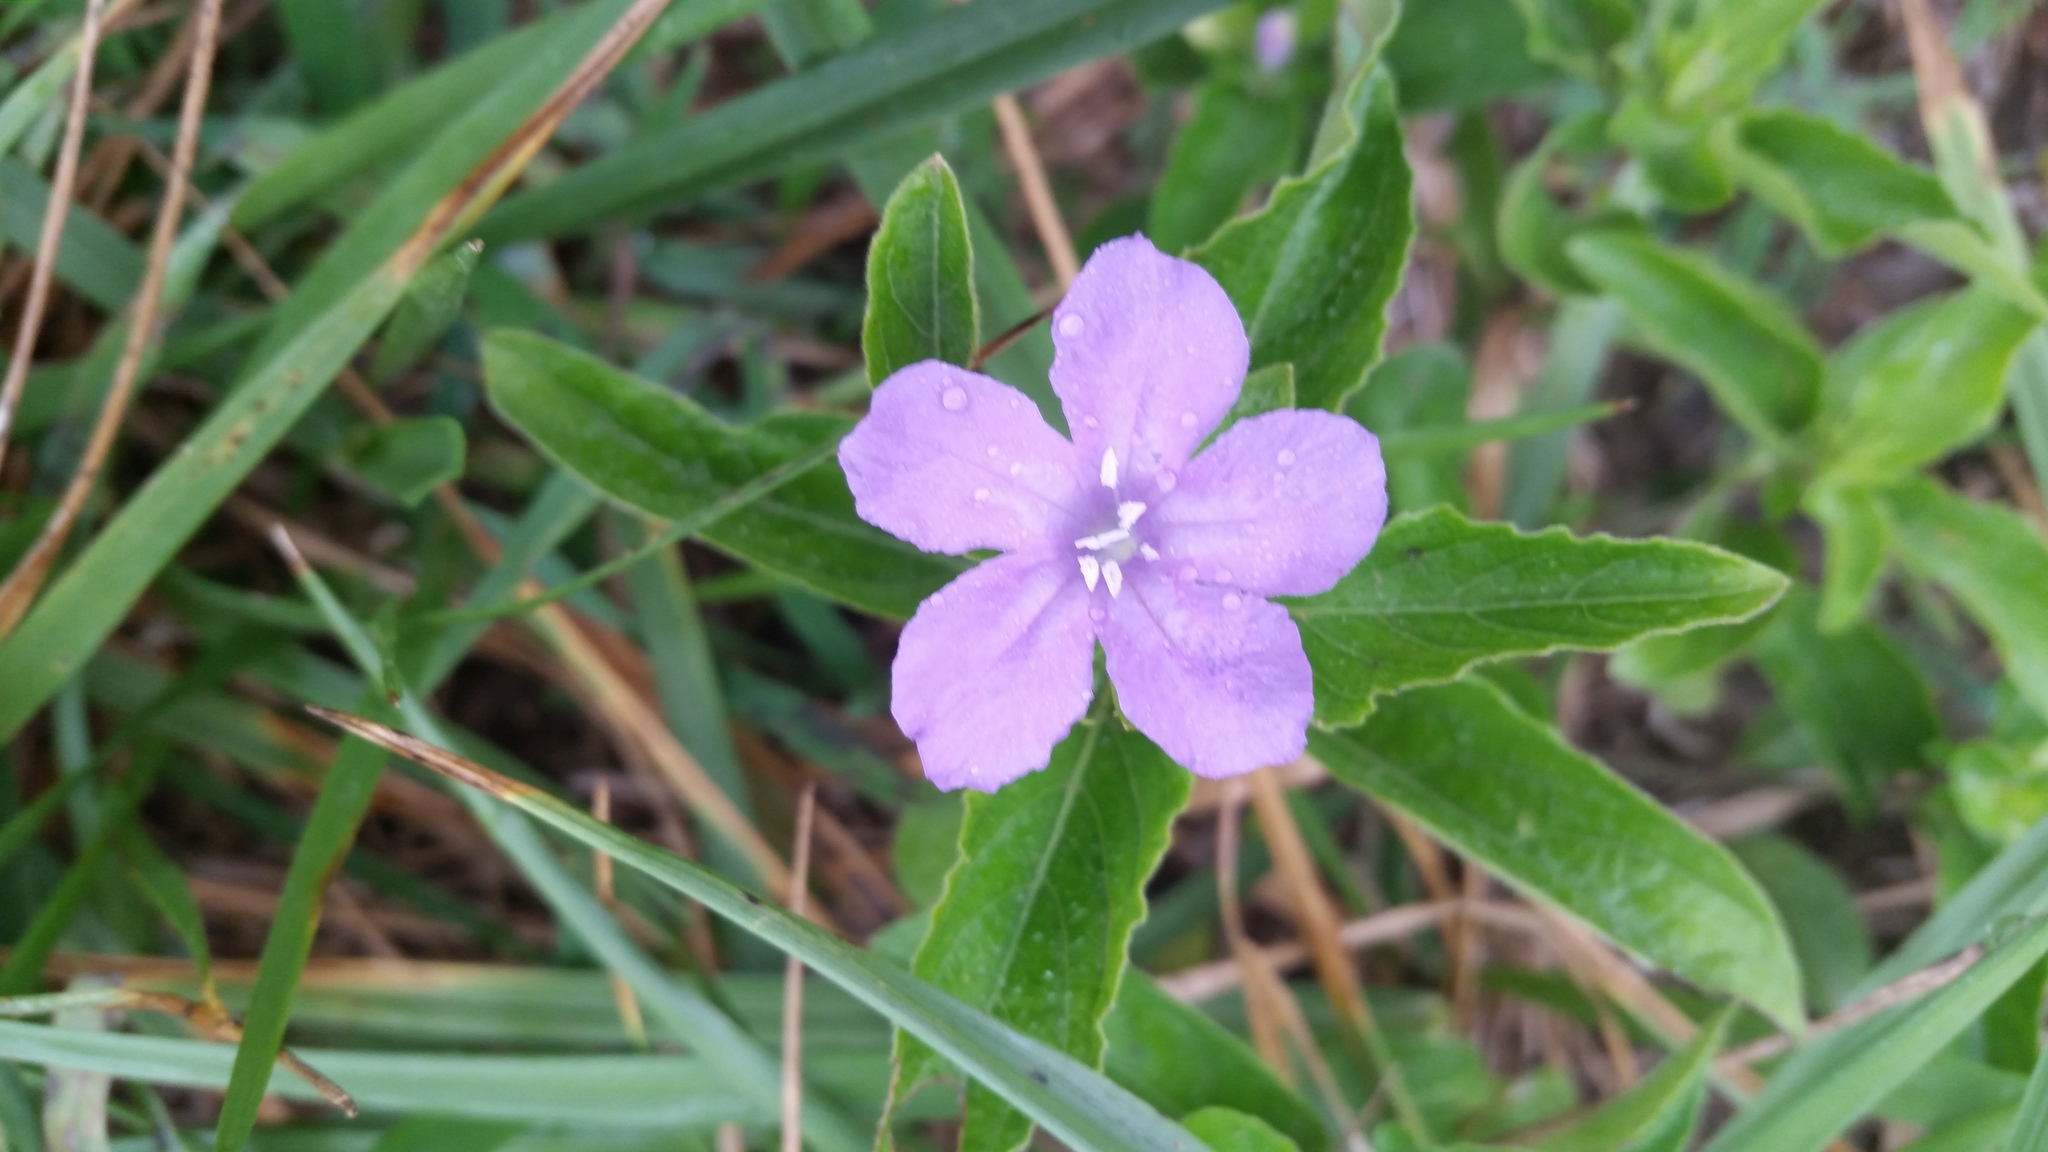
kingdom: Plantae
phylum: Tracheophyta
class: Magnoliopsida
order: Lamiales
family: Acanthaceae
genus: Ruellia
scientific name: Ruellia caroliniensis
